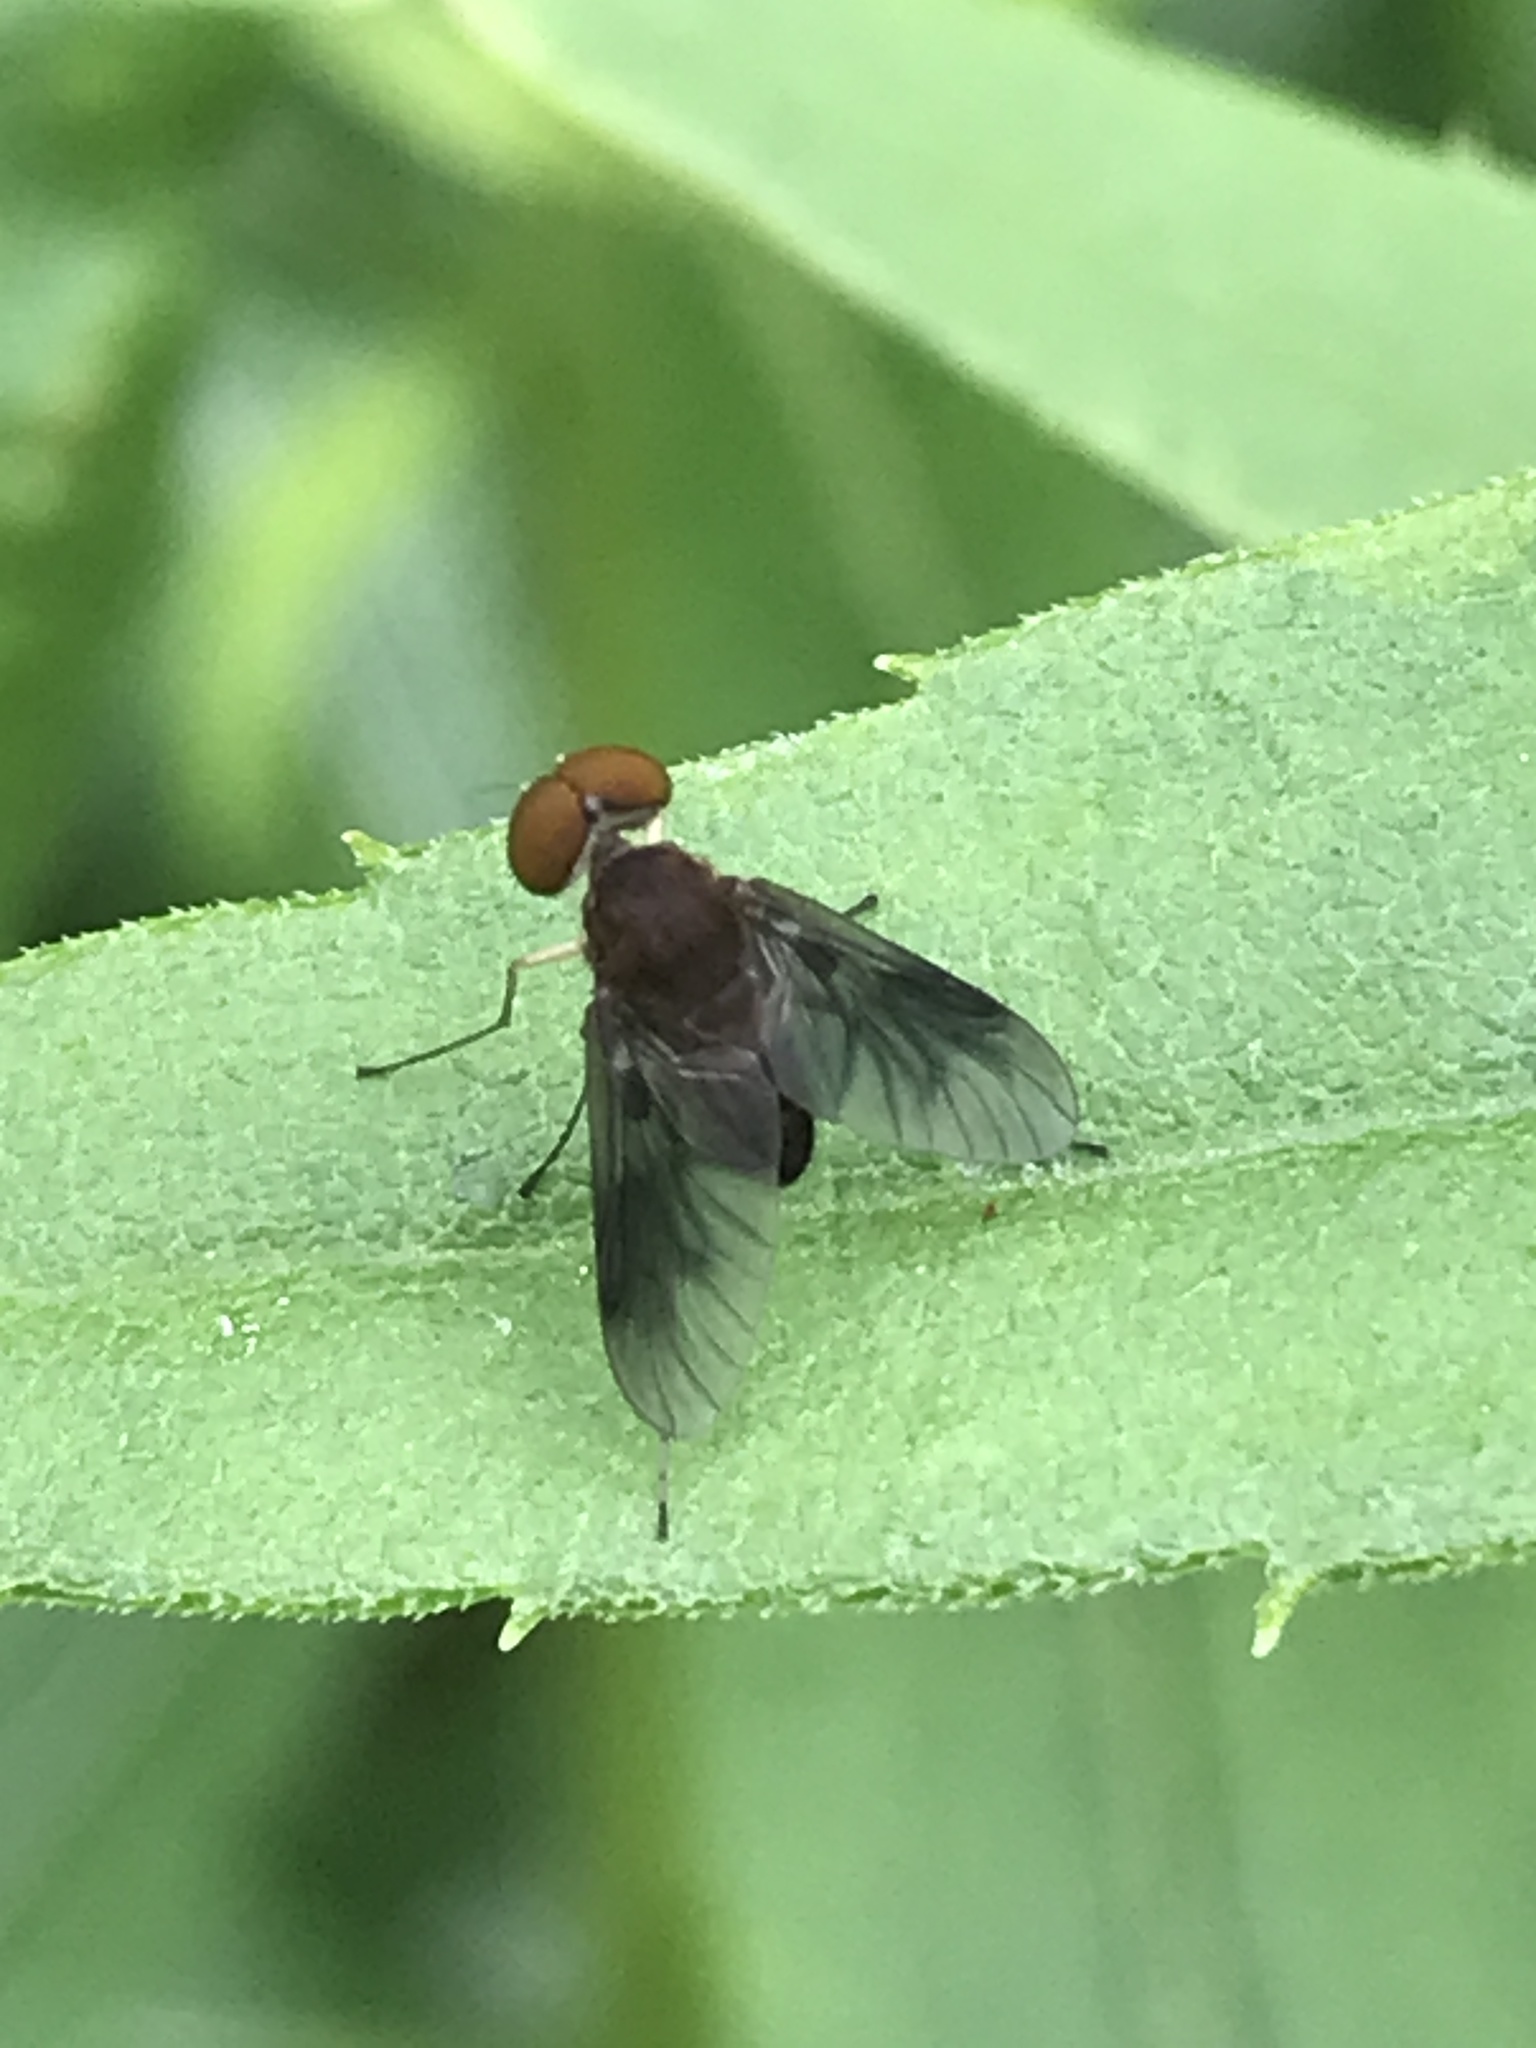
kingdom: Animalia
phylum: Arthropoda
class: Insecta
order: Diptera
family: Rhagionidae
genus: Chrysopilus
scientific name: Chrysopilus quadratus
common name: Quadrate snipe fly
